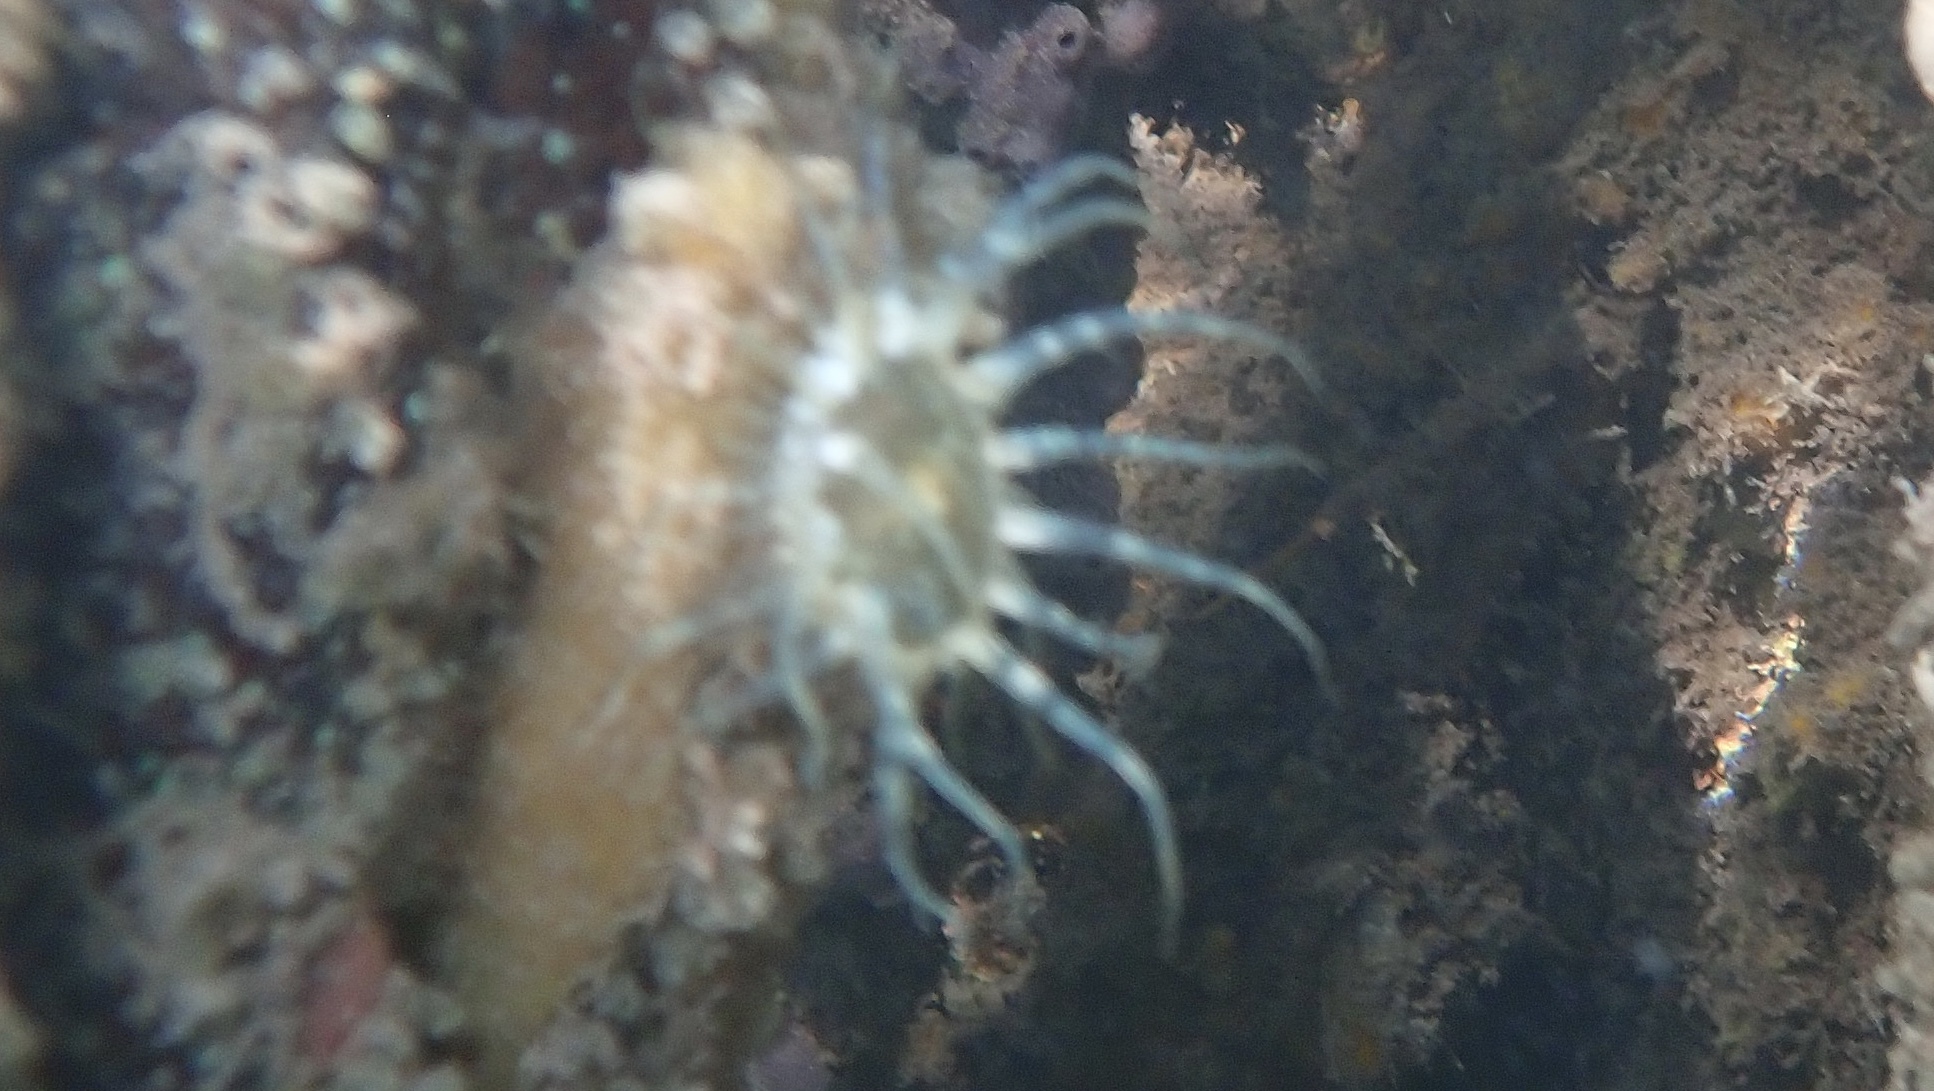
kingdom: Animalia
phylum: Cnidaria
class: Anthozoa
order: Actiniaria
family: Aiptasiidae
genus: Exaiptasia
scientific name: Exaiptasia diaphana
